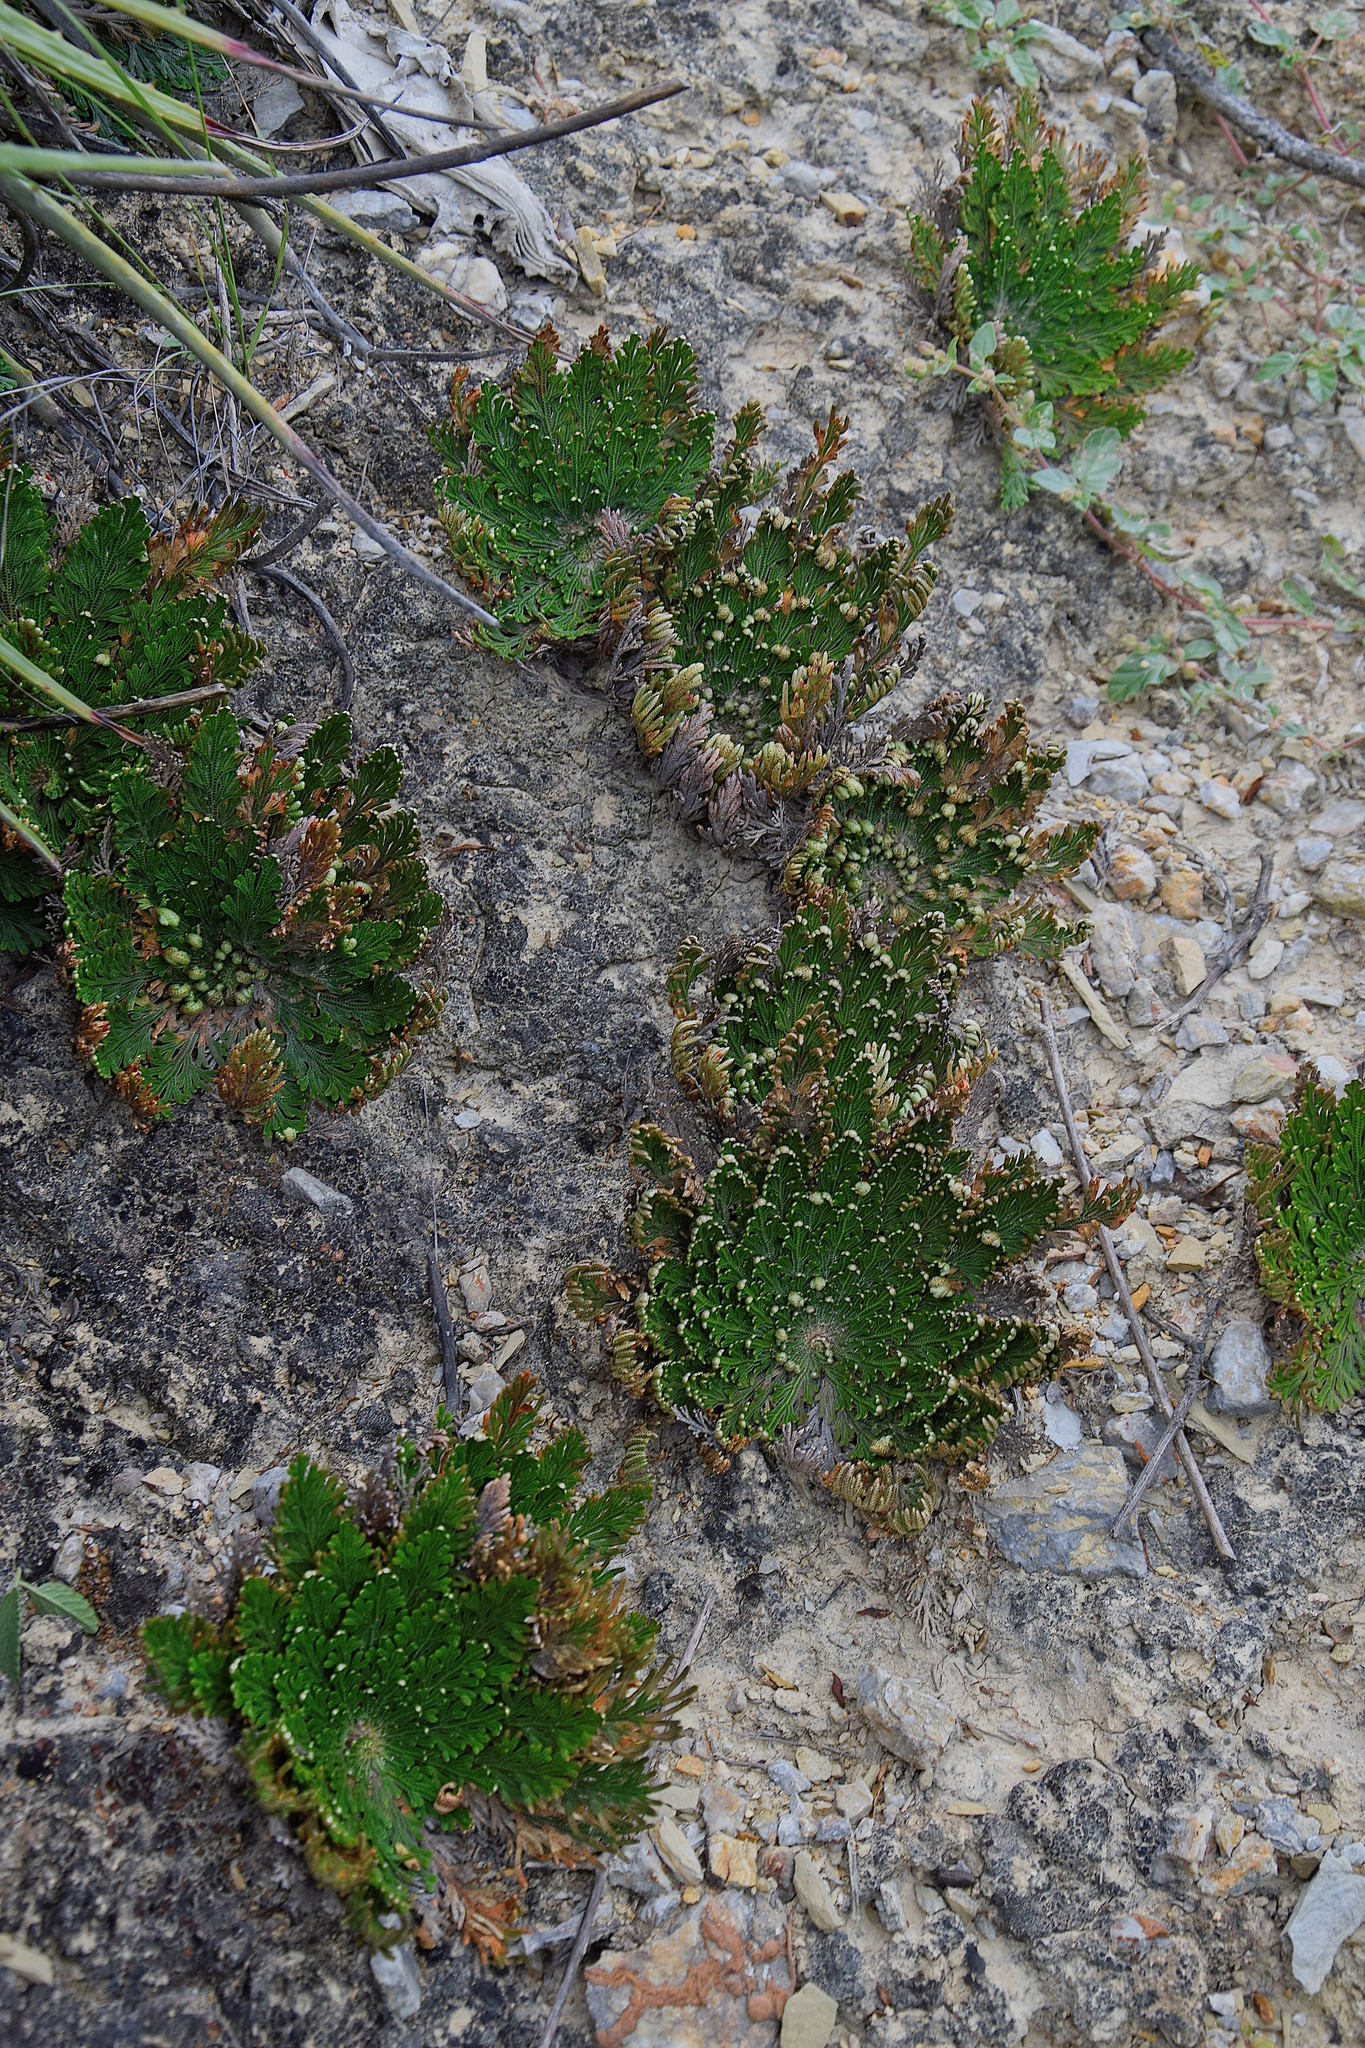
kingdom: Plantae
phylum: Tracheophyta
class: Lycopodiopsida
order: Selaginellales
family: Selaginellaceae
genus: Selaginella
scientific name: Selaginella lepidophylla
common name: Rose-of-jericho
